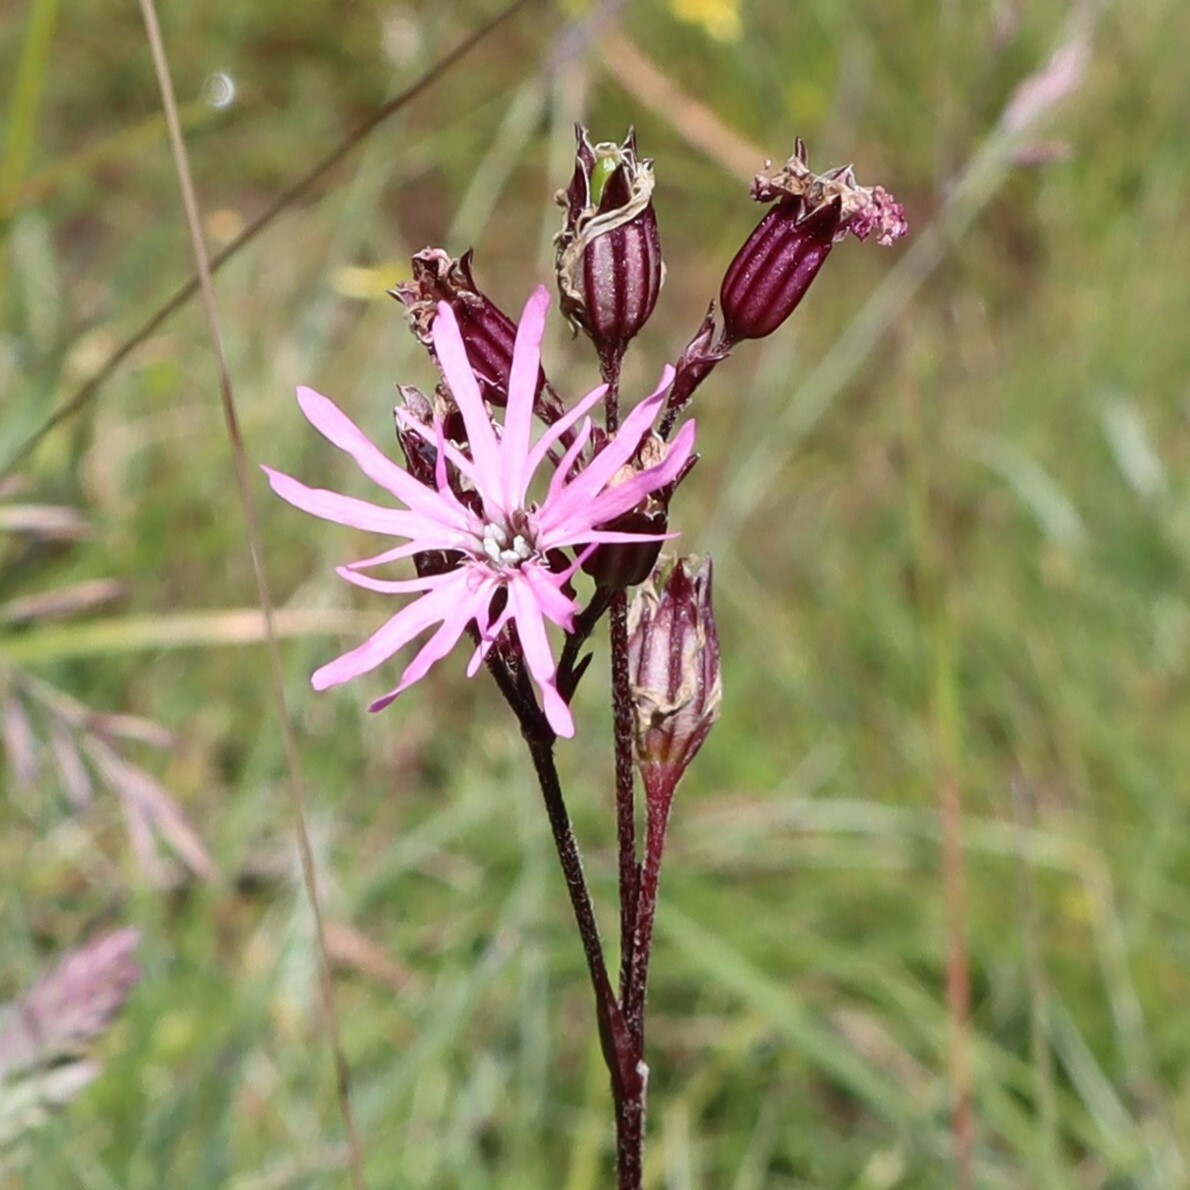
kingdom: Plantae
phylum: Tracheophyta
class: Magnoliopsida
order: Caryophyllales
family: Caryophyllaceae
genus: Silene
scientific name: Silene flos-cuculi
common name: Ragged-robin
